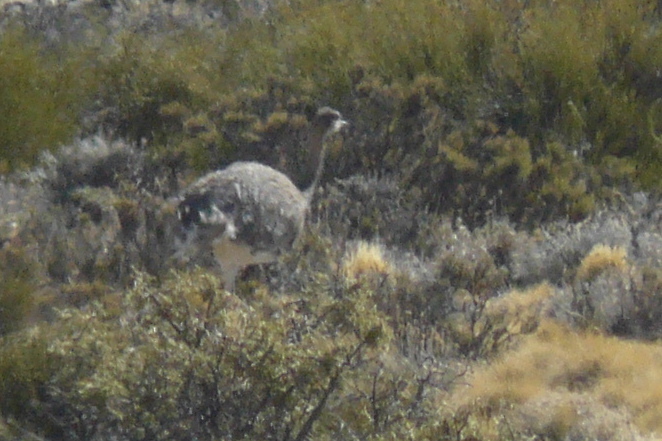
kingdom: Animalia
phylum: Chordata
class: Aves
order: Rheiformes
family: Rheidae
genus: Rhea
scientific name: Rhea pennata
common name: Lesser rhea
